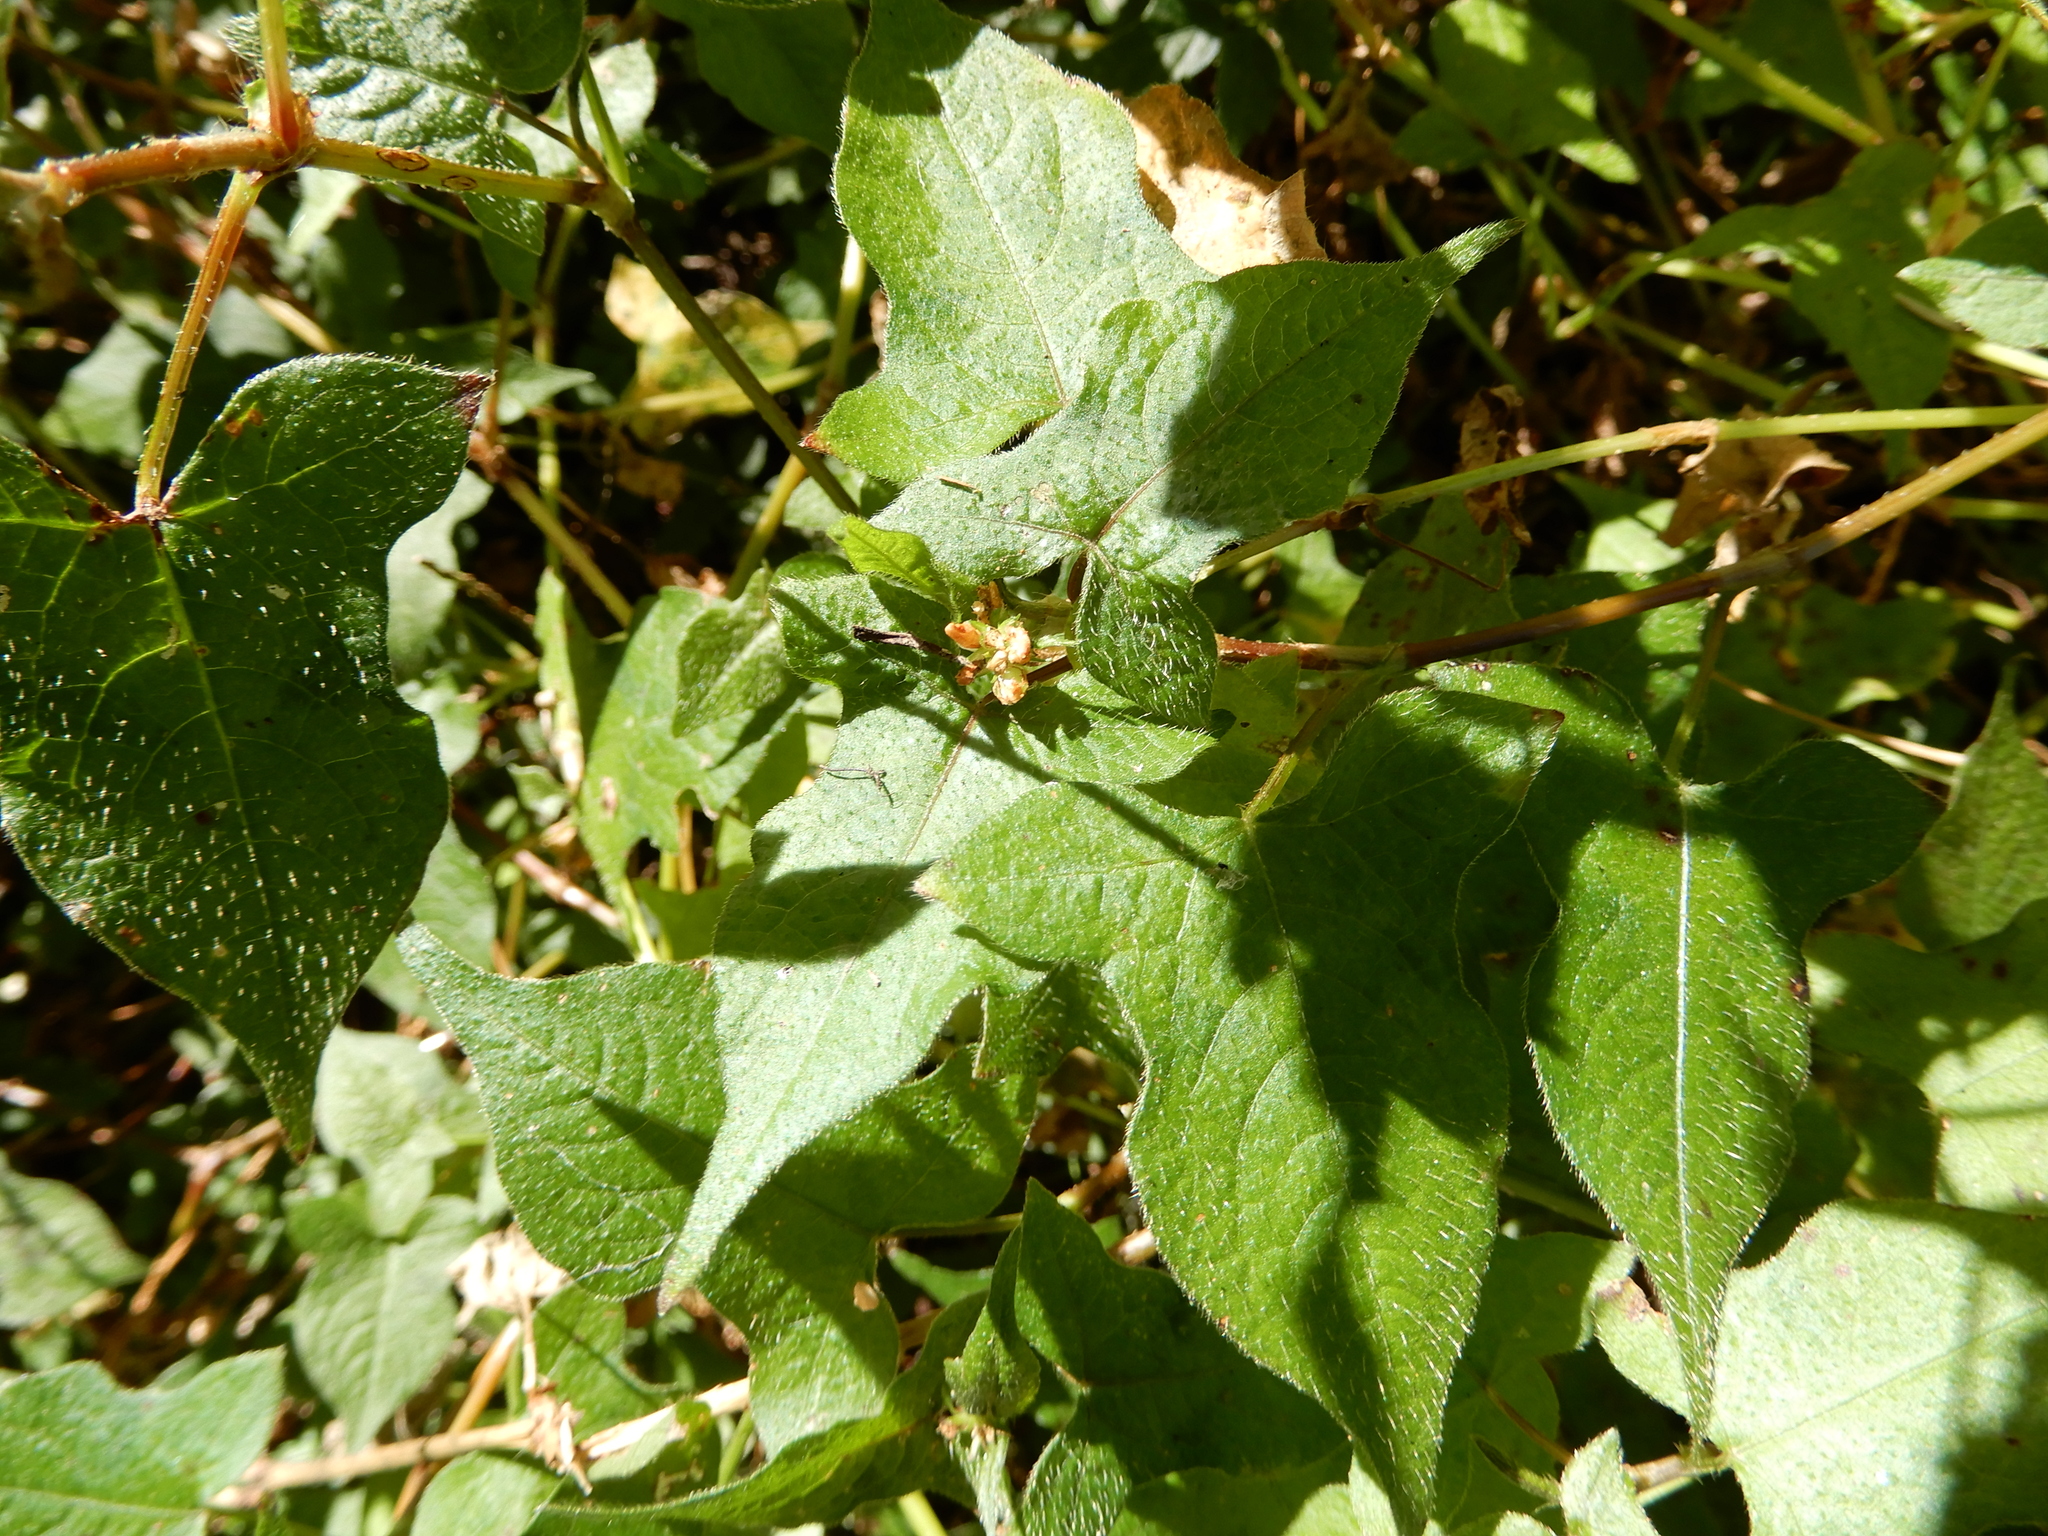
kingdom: Plantae
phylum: Tracheophyta
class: Magnoliopsida
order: Caryophyllales
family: Polygonaceae
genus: Persicaria
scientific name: Persicaria biconvexa
